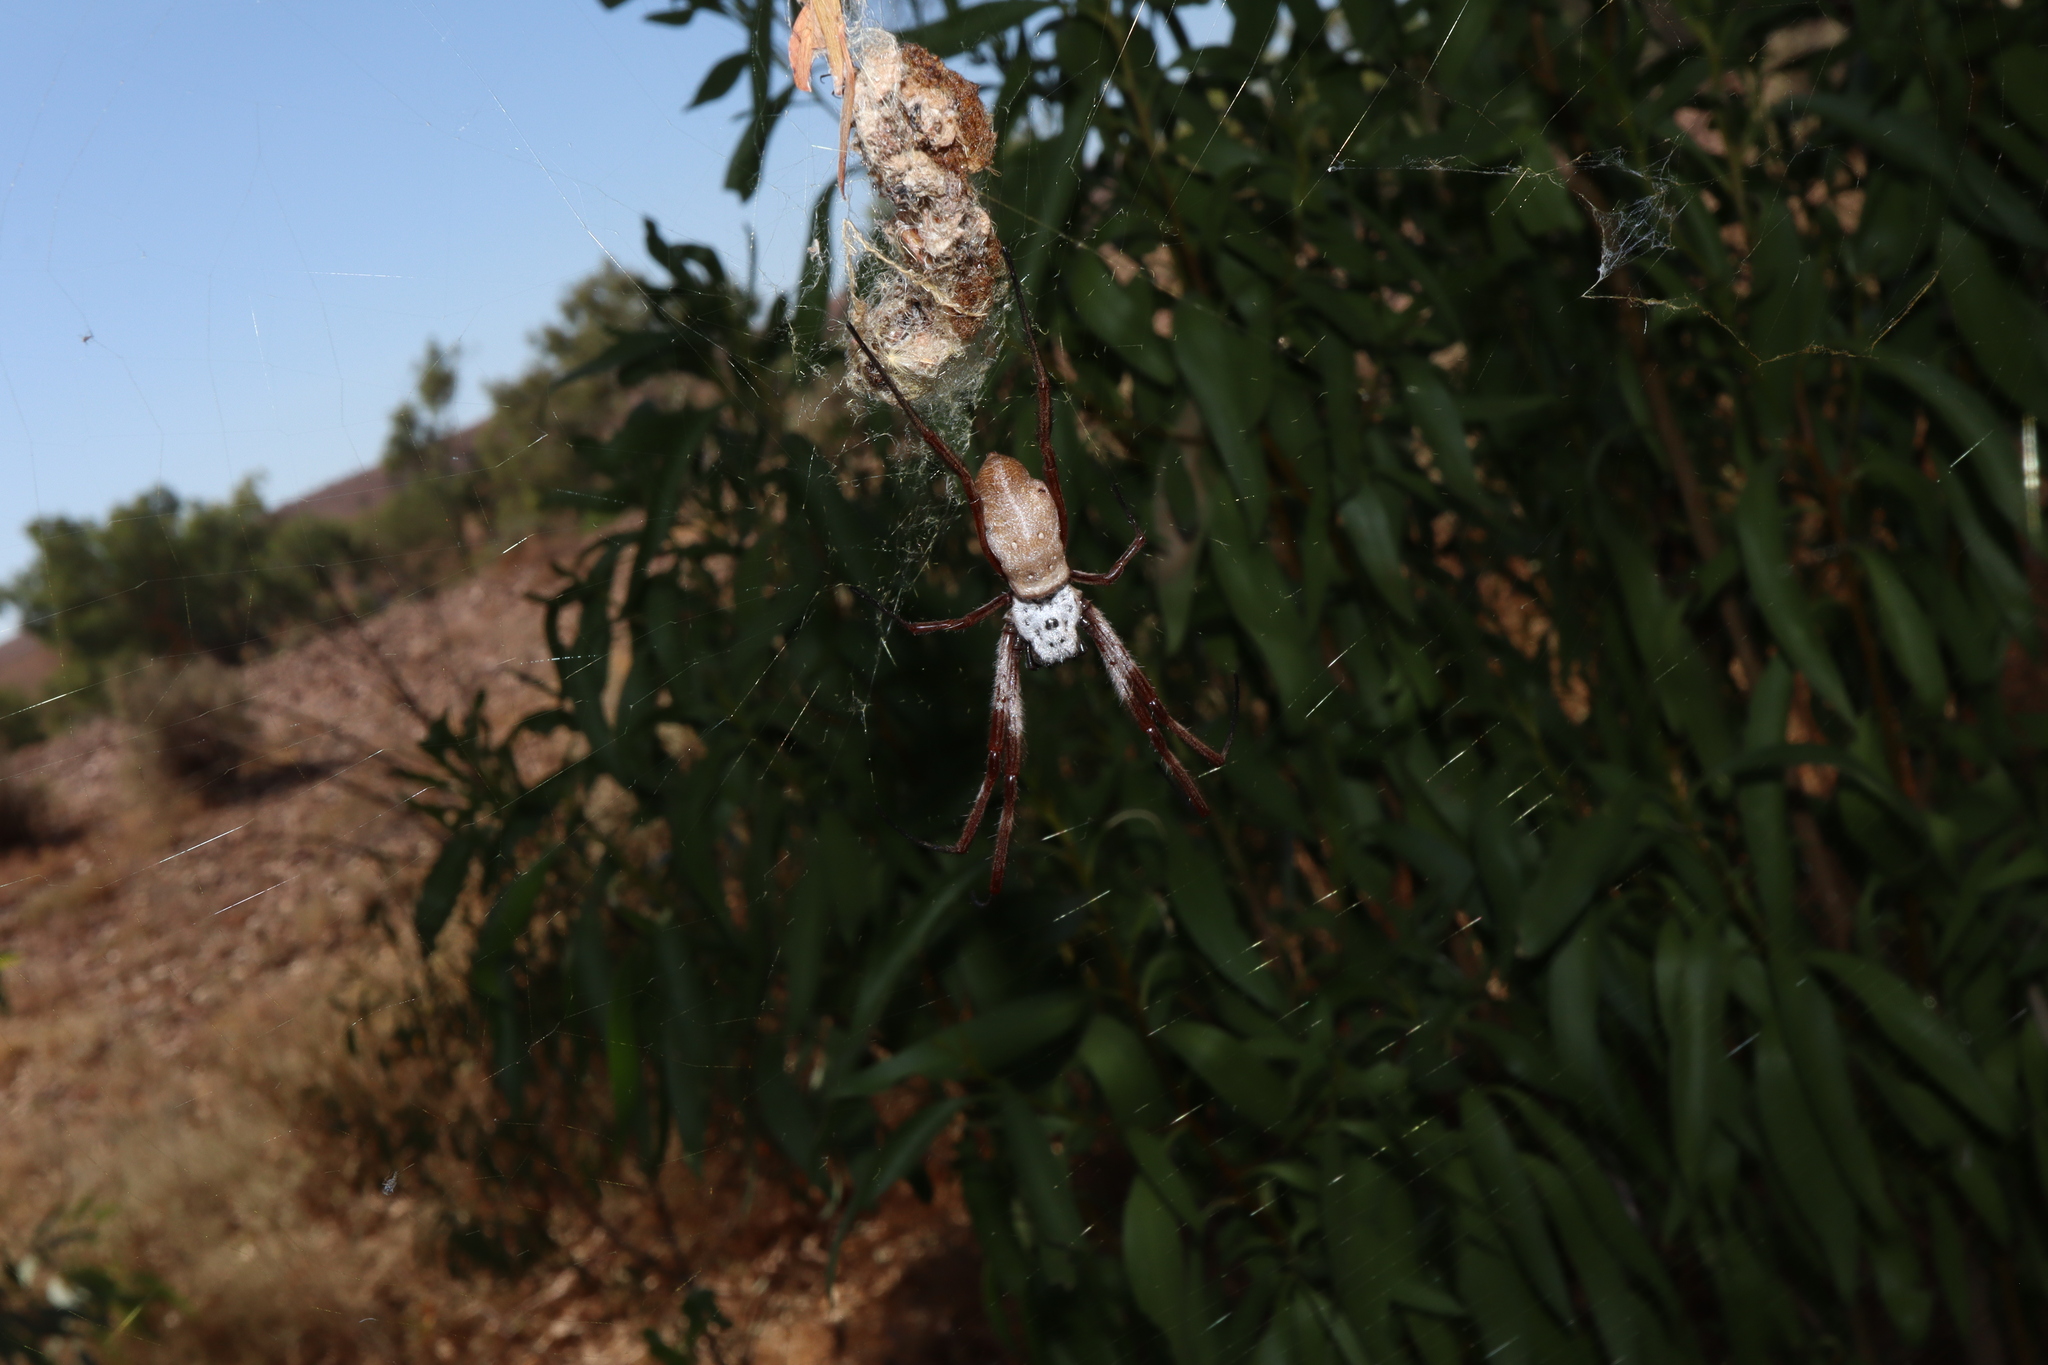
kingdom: Animalia
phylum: Arthropoda
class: Arachnida
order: Araneae
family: Araneidae
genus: Trichonephila
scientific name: Trichonephila edulis
